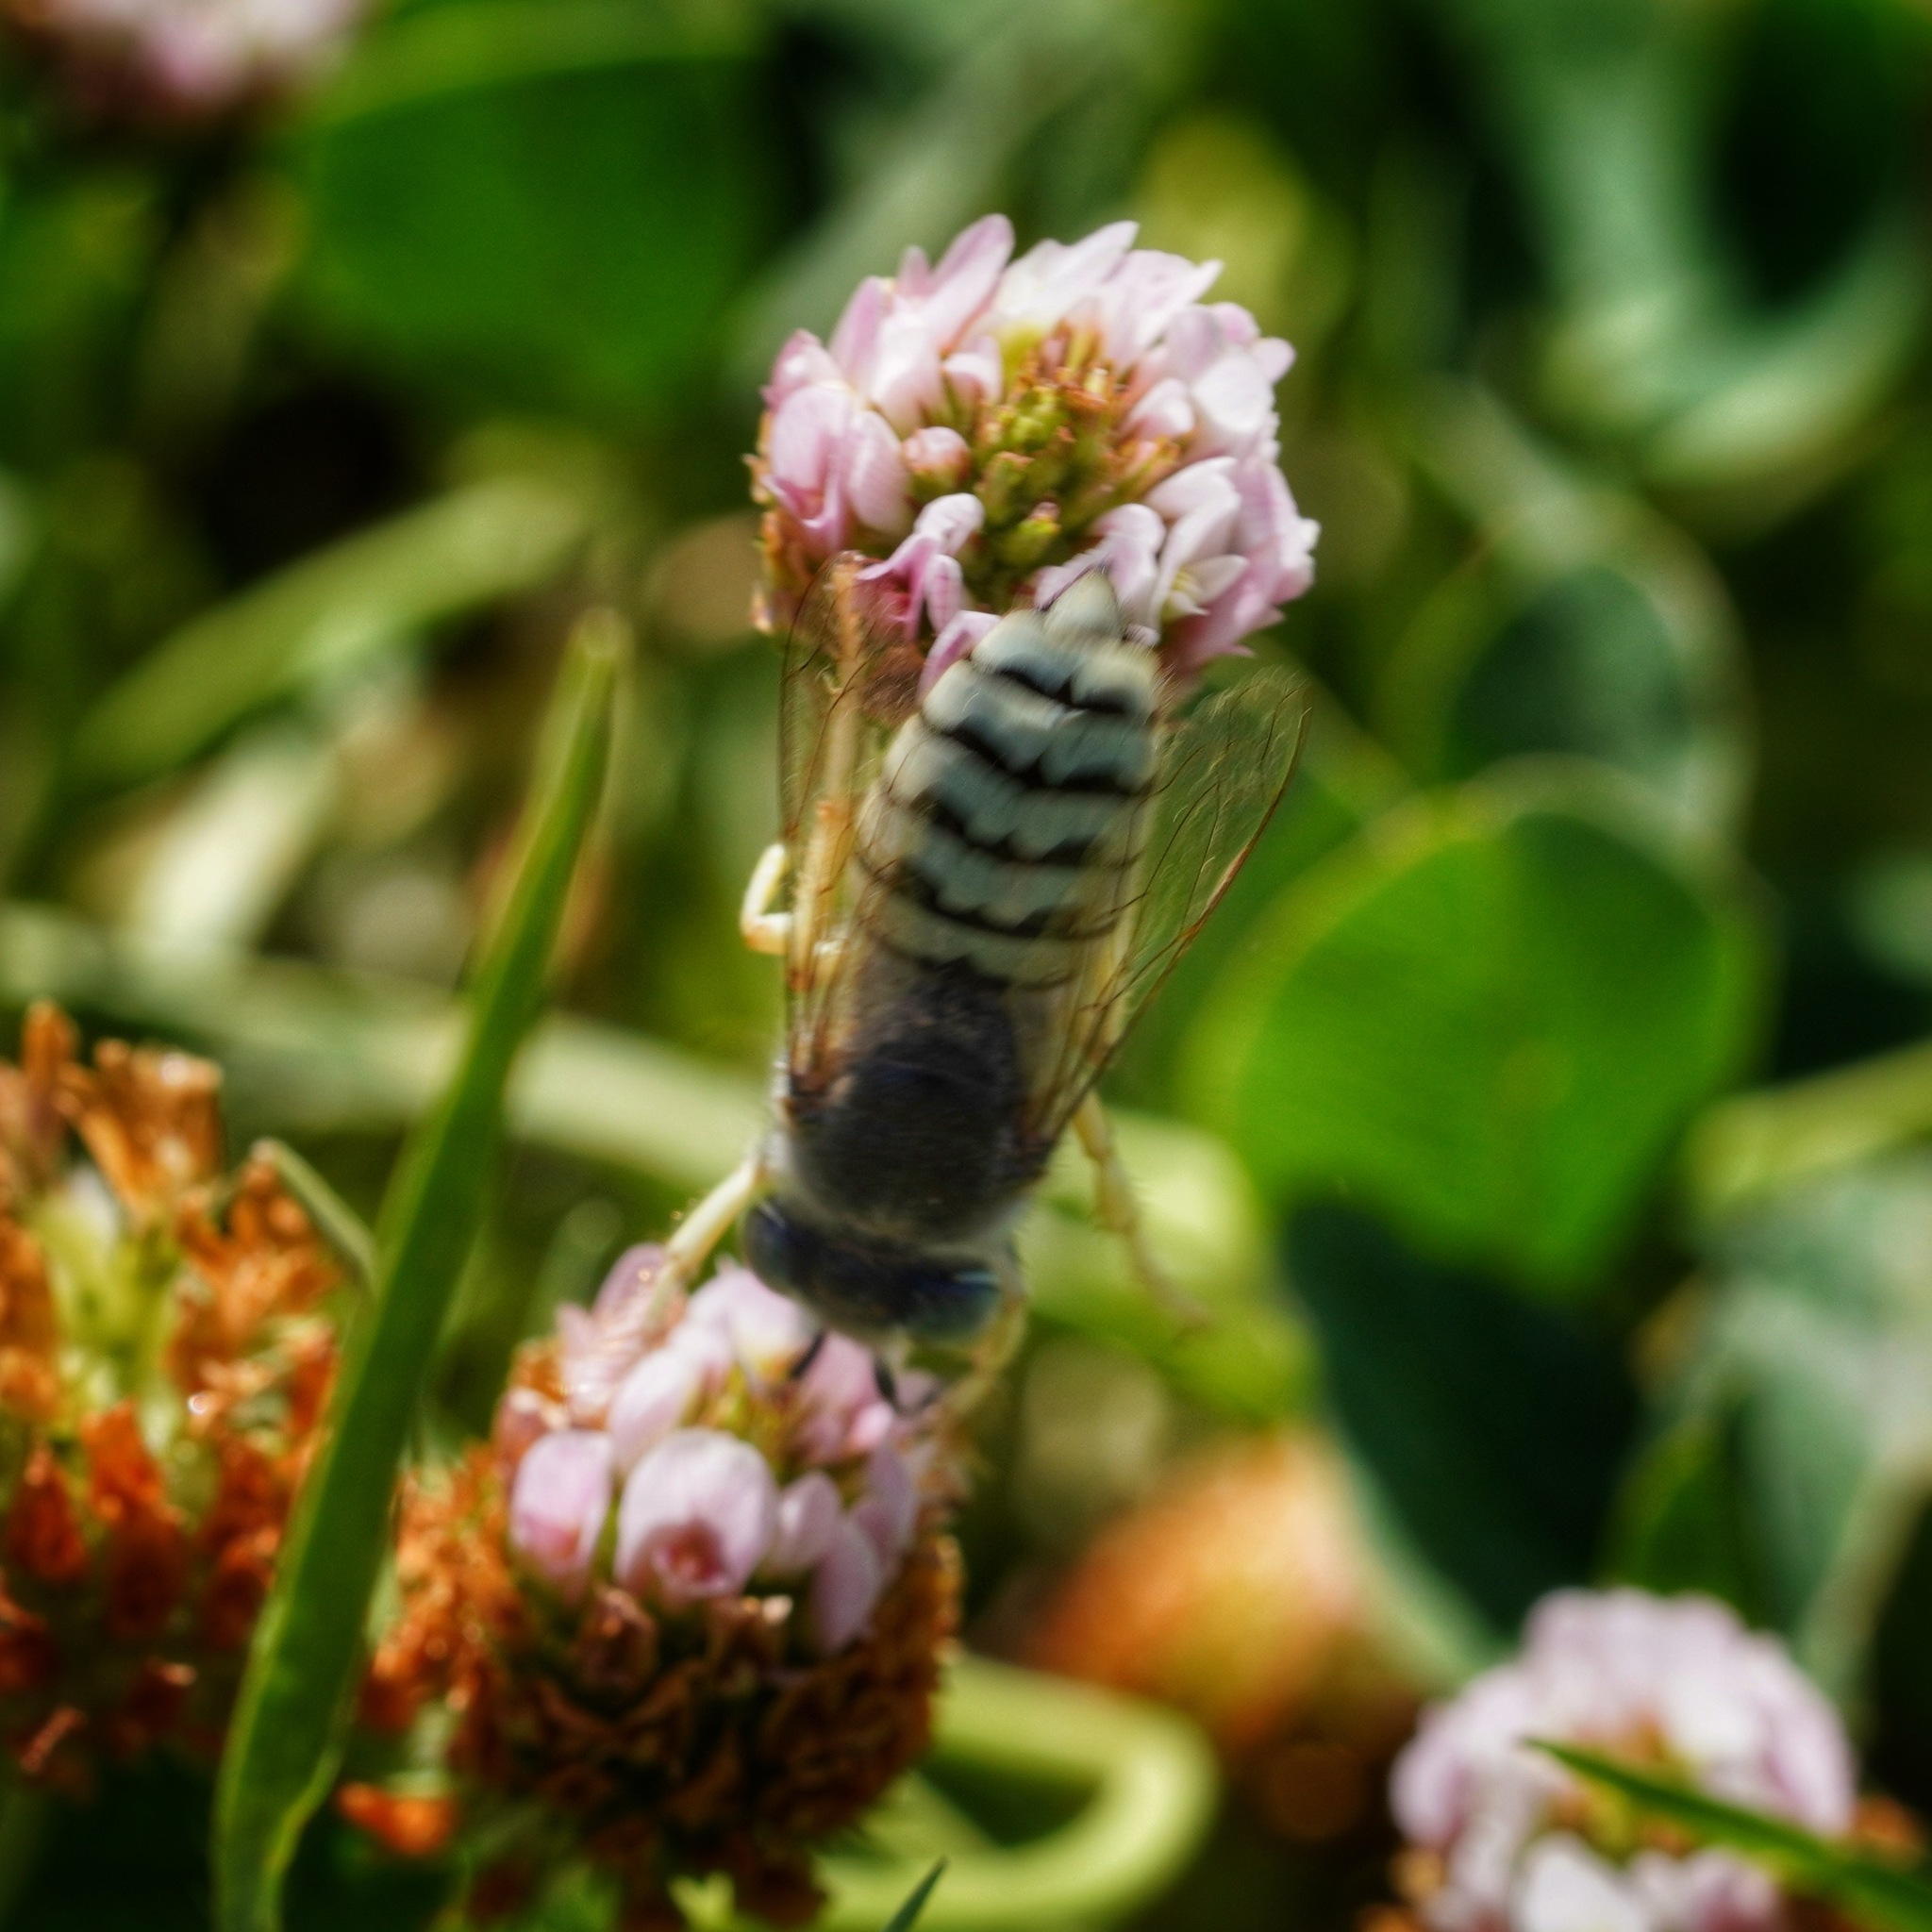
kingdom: Animalia
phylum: Arthropoda
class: Insecta
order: Hymenoptera
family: Crabronidae
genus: Bembix
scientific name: Bembix brullei
